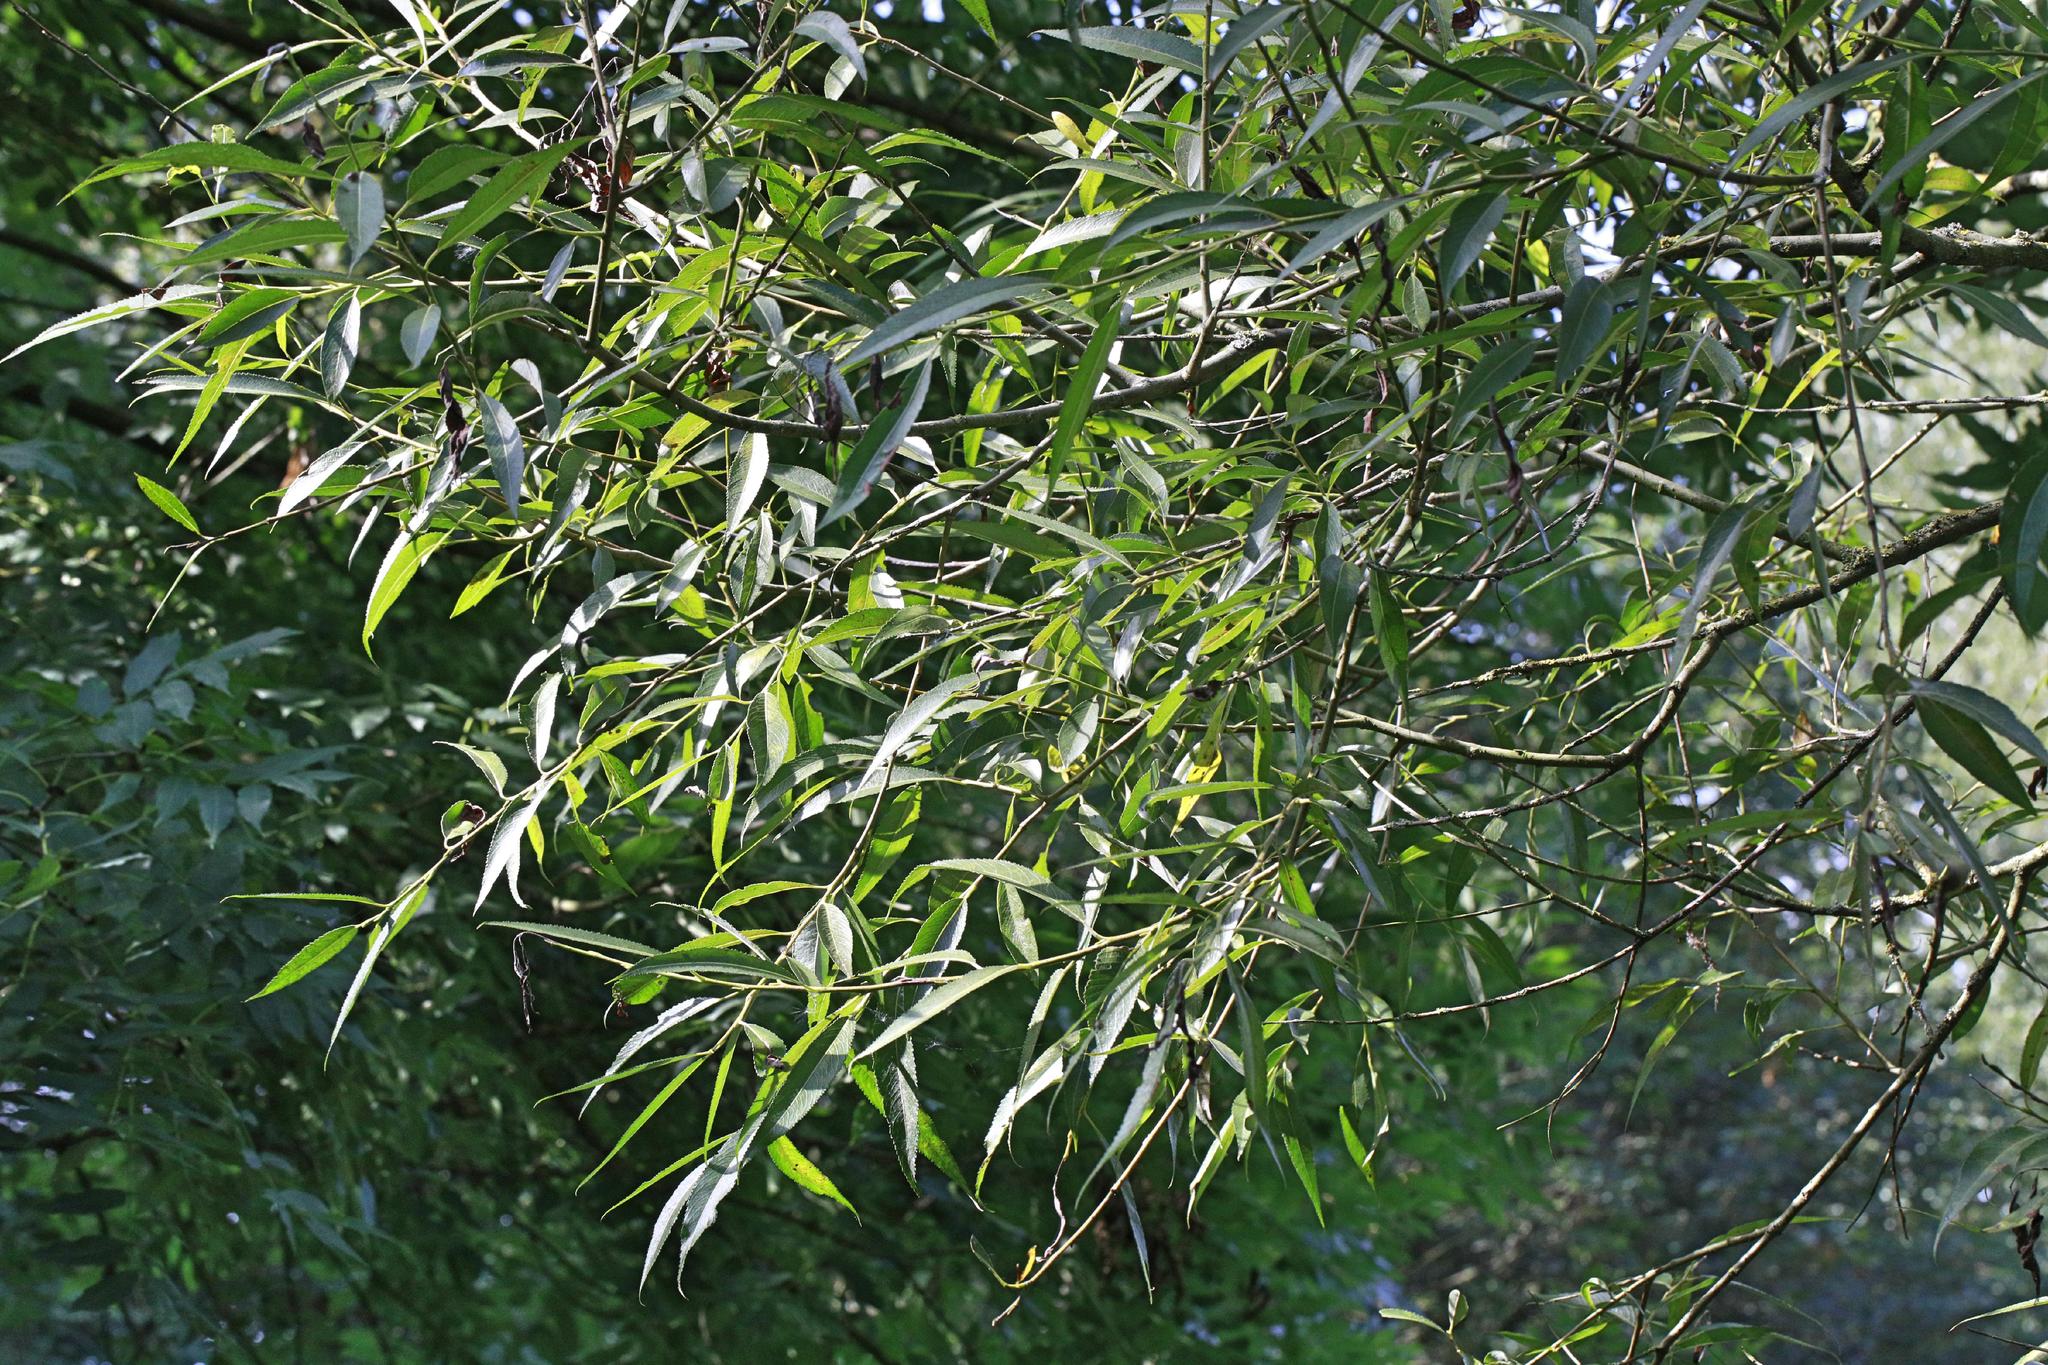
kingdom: Plantae
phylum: Tracheophyta
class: Magnoliopsida
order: Malpighiales
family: Salicaceae
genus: Salix
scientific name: Salix fragilis
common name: Crack willow
